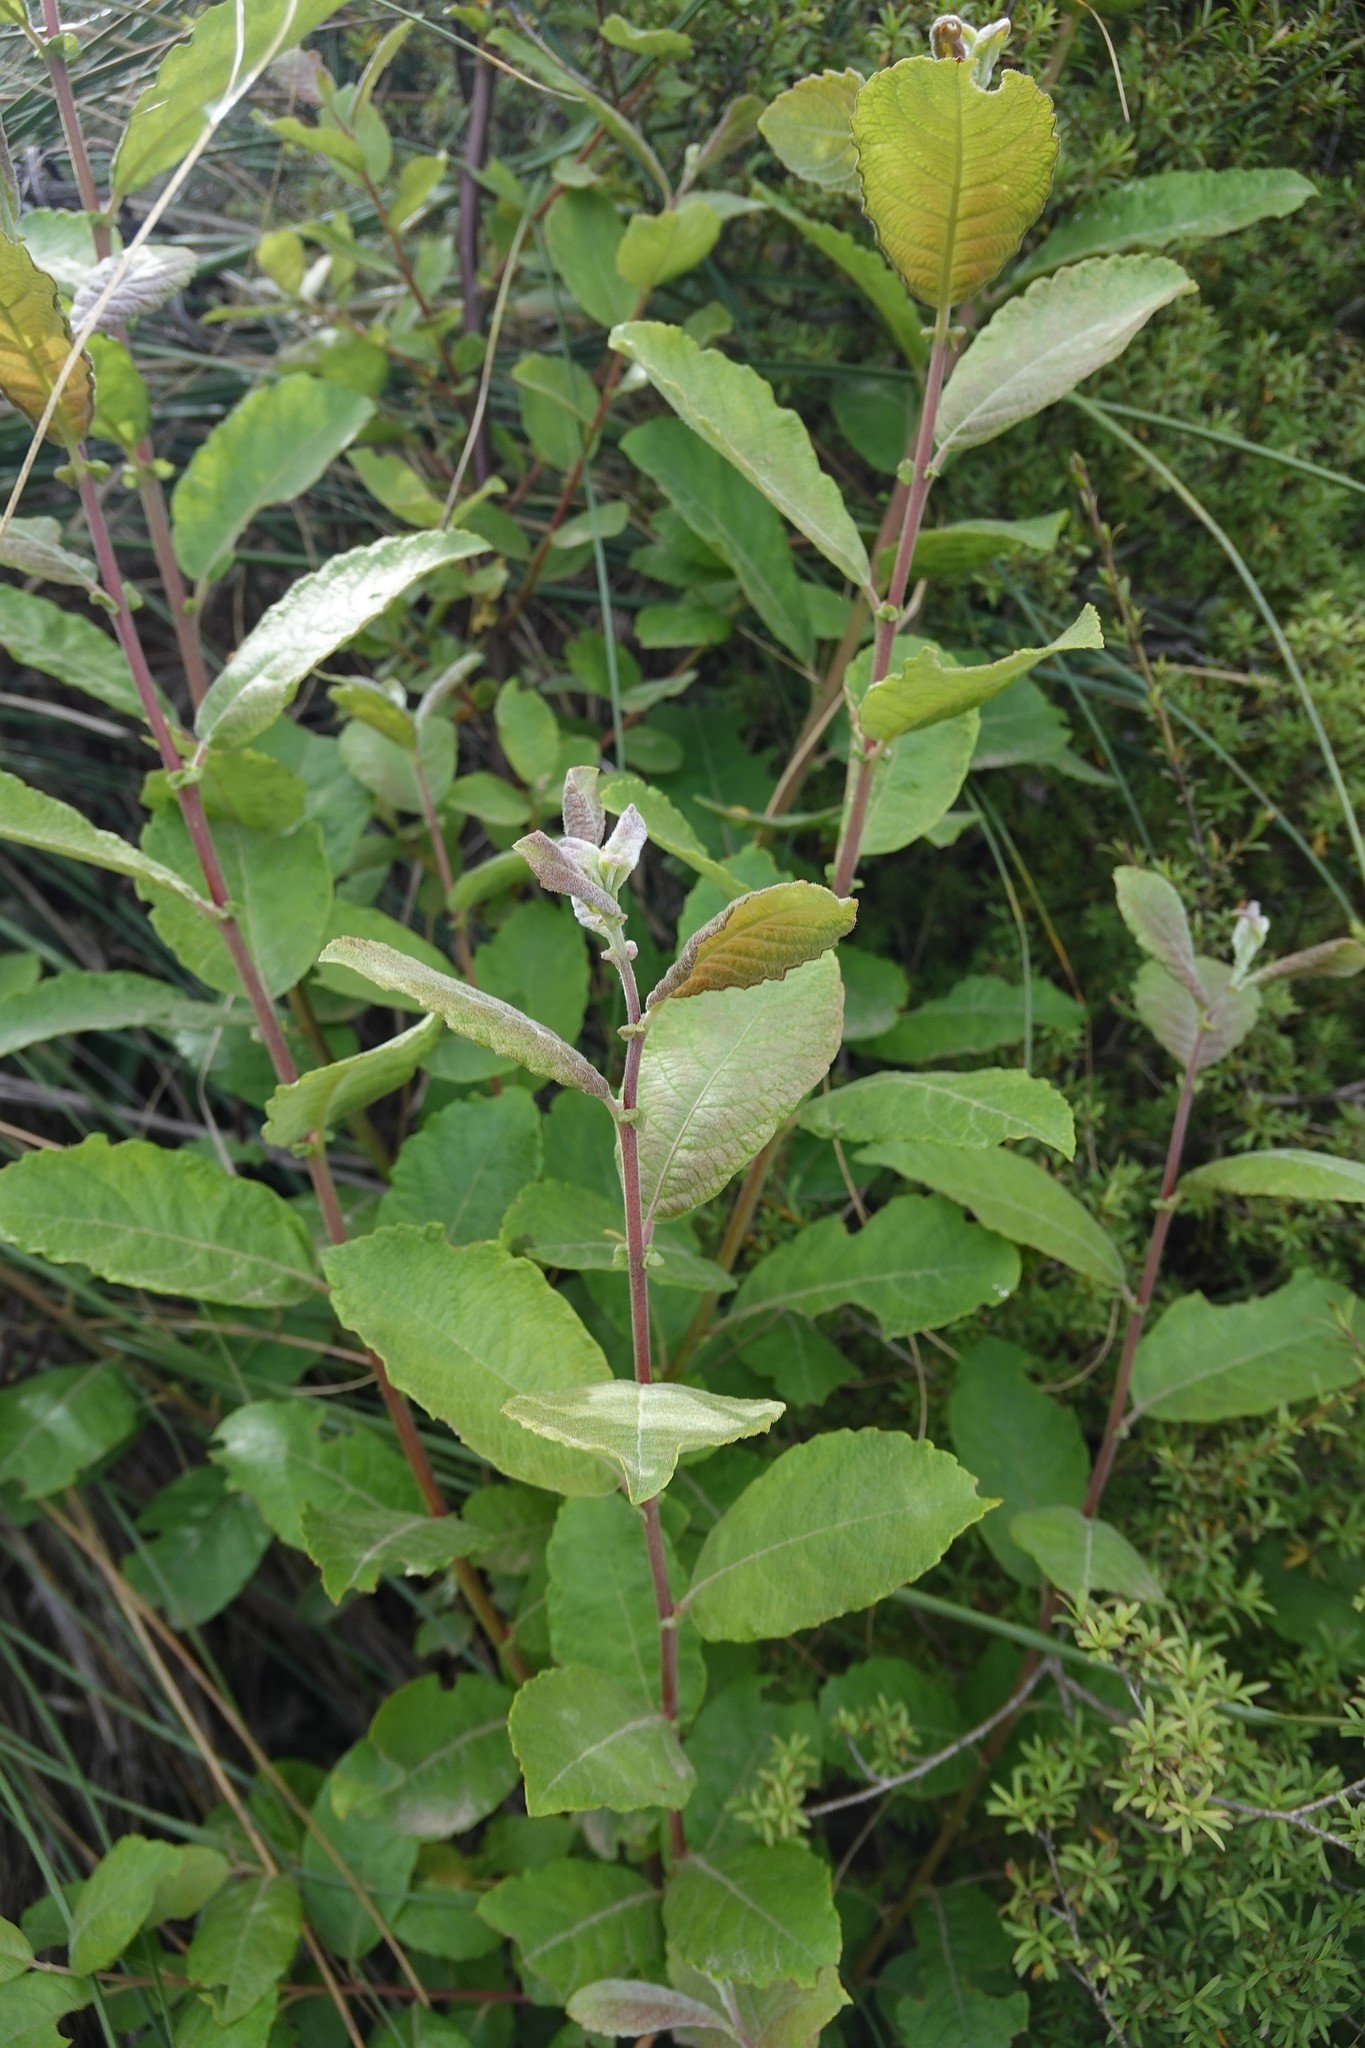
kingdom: Plantae
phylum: Tracheophyta
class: Magnoliopsida
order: Malpighiales
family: Salicaceae
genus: Salix
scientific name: Salix cinerea
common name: Common sallow
